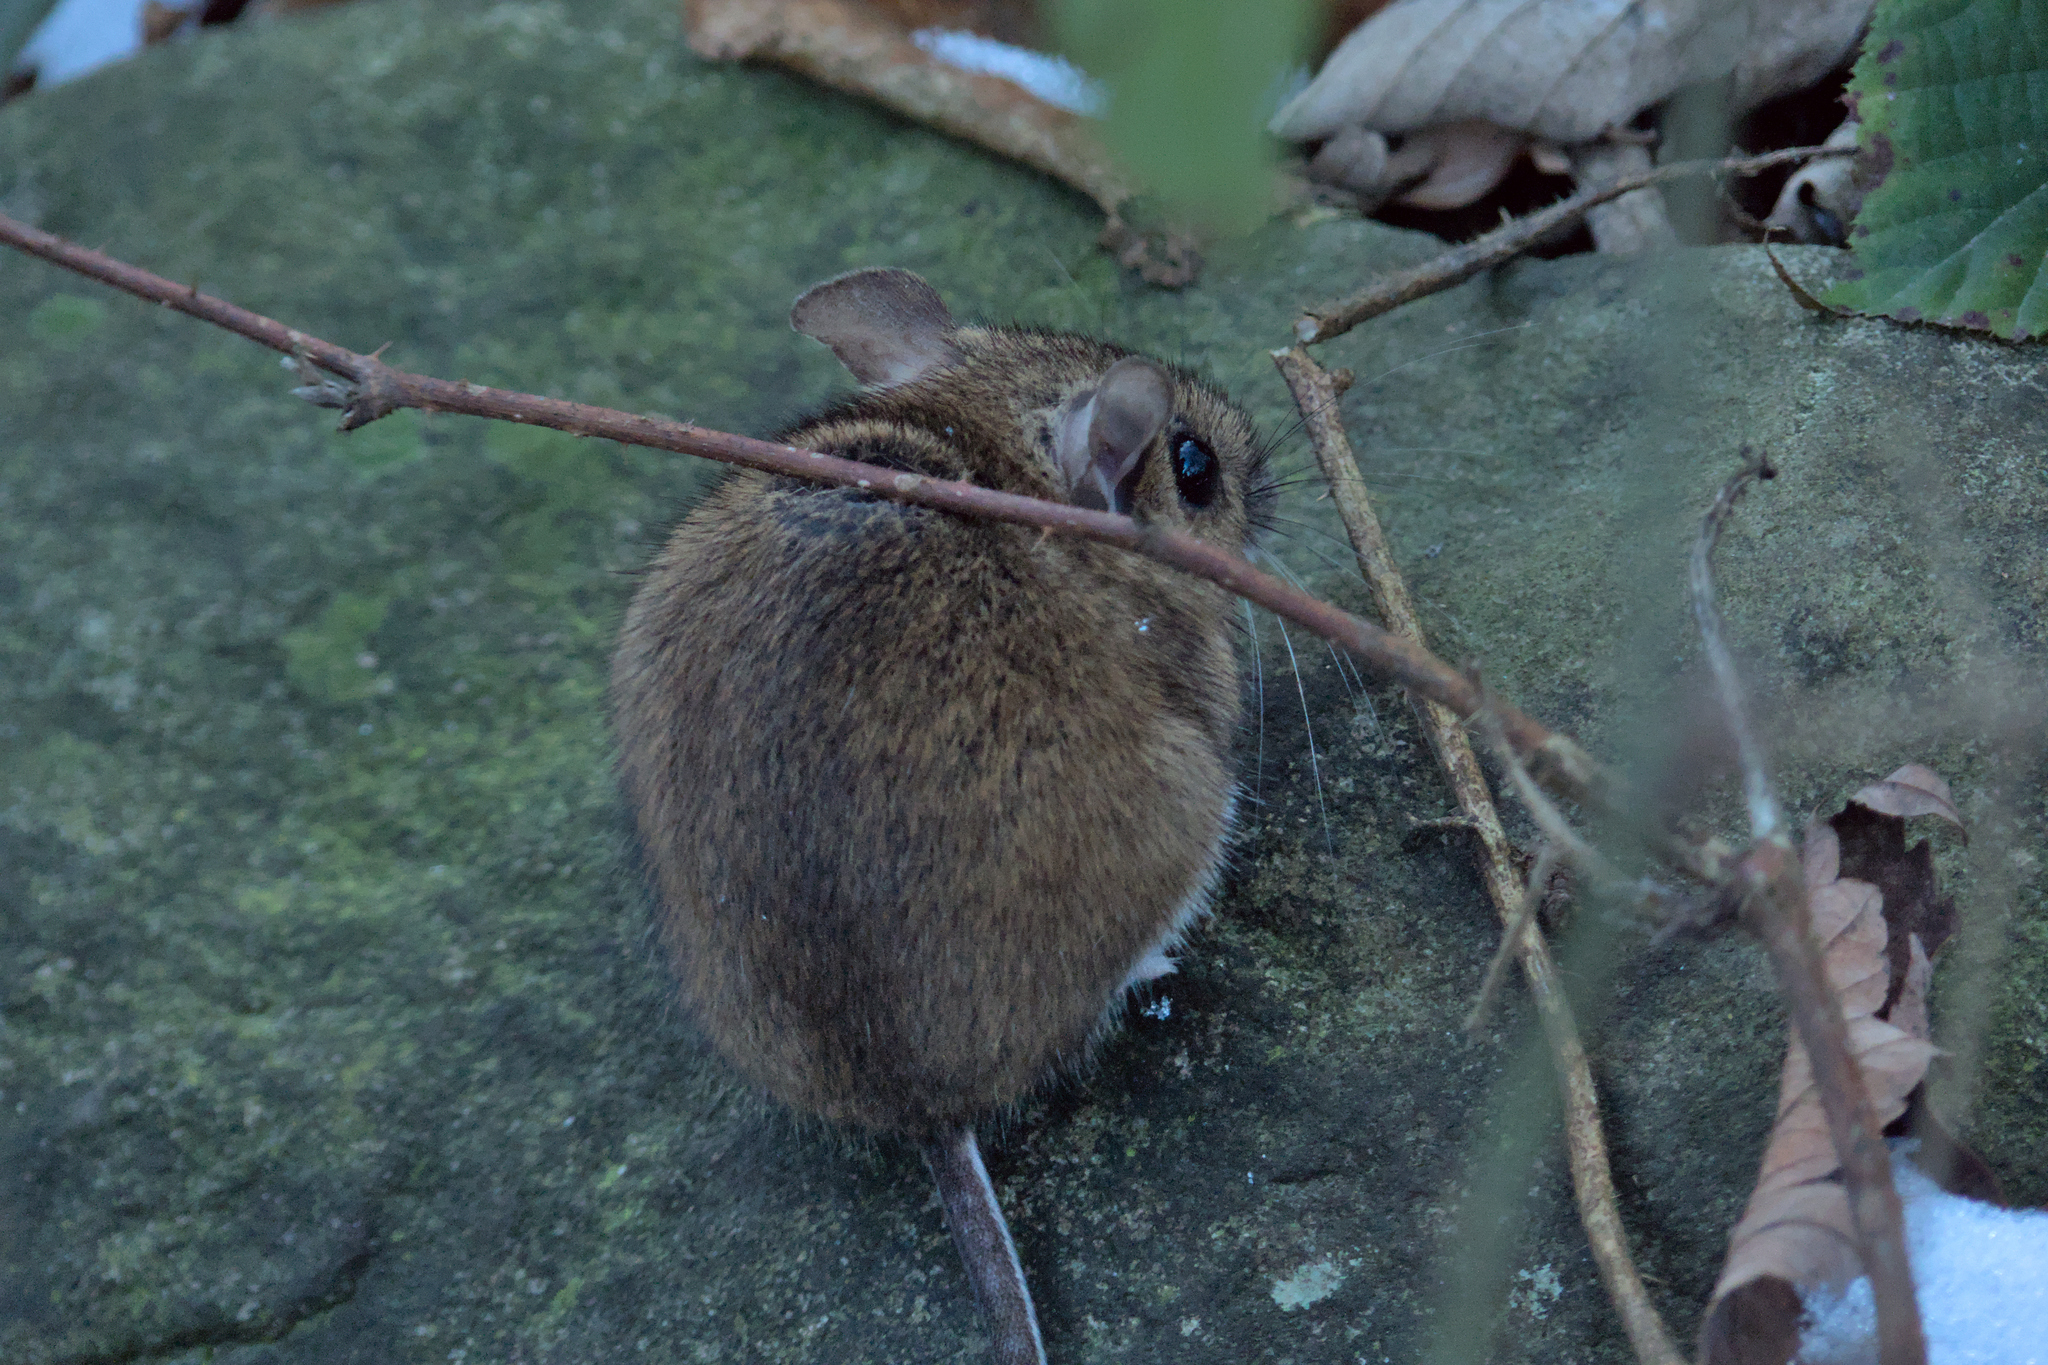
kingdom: Animalia
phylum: Chordata
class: Mammalia
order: Rodentia
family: Muridae
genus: Apodemus
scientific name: Apodemus flavicollis
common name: Yellow-necked field mouse
